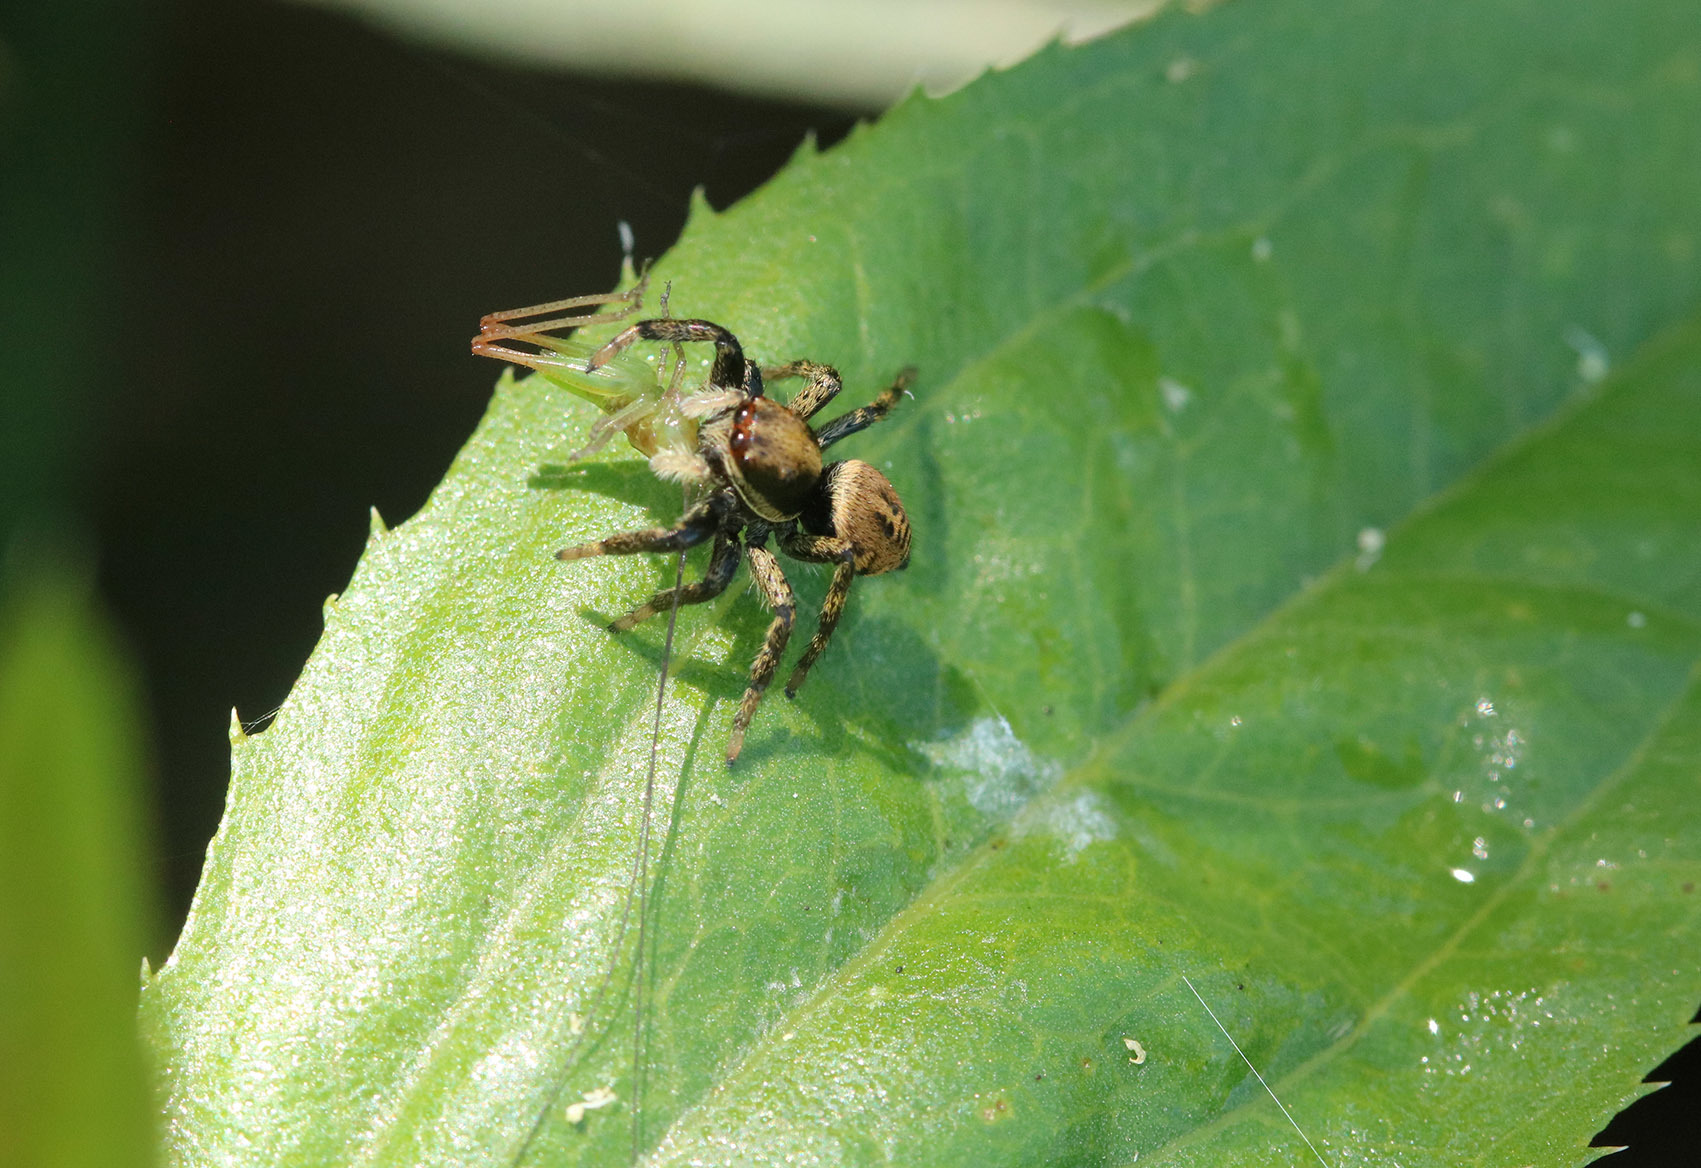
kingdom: Animalia
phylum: Arthropoda
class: Arachnida
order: Araneae
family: Salticidae
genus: Phiale
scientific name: Phiale roburifoliata
